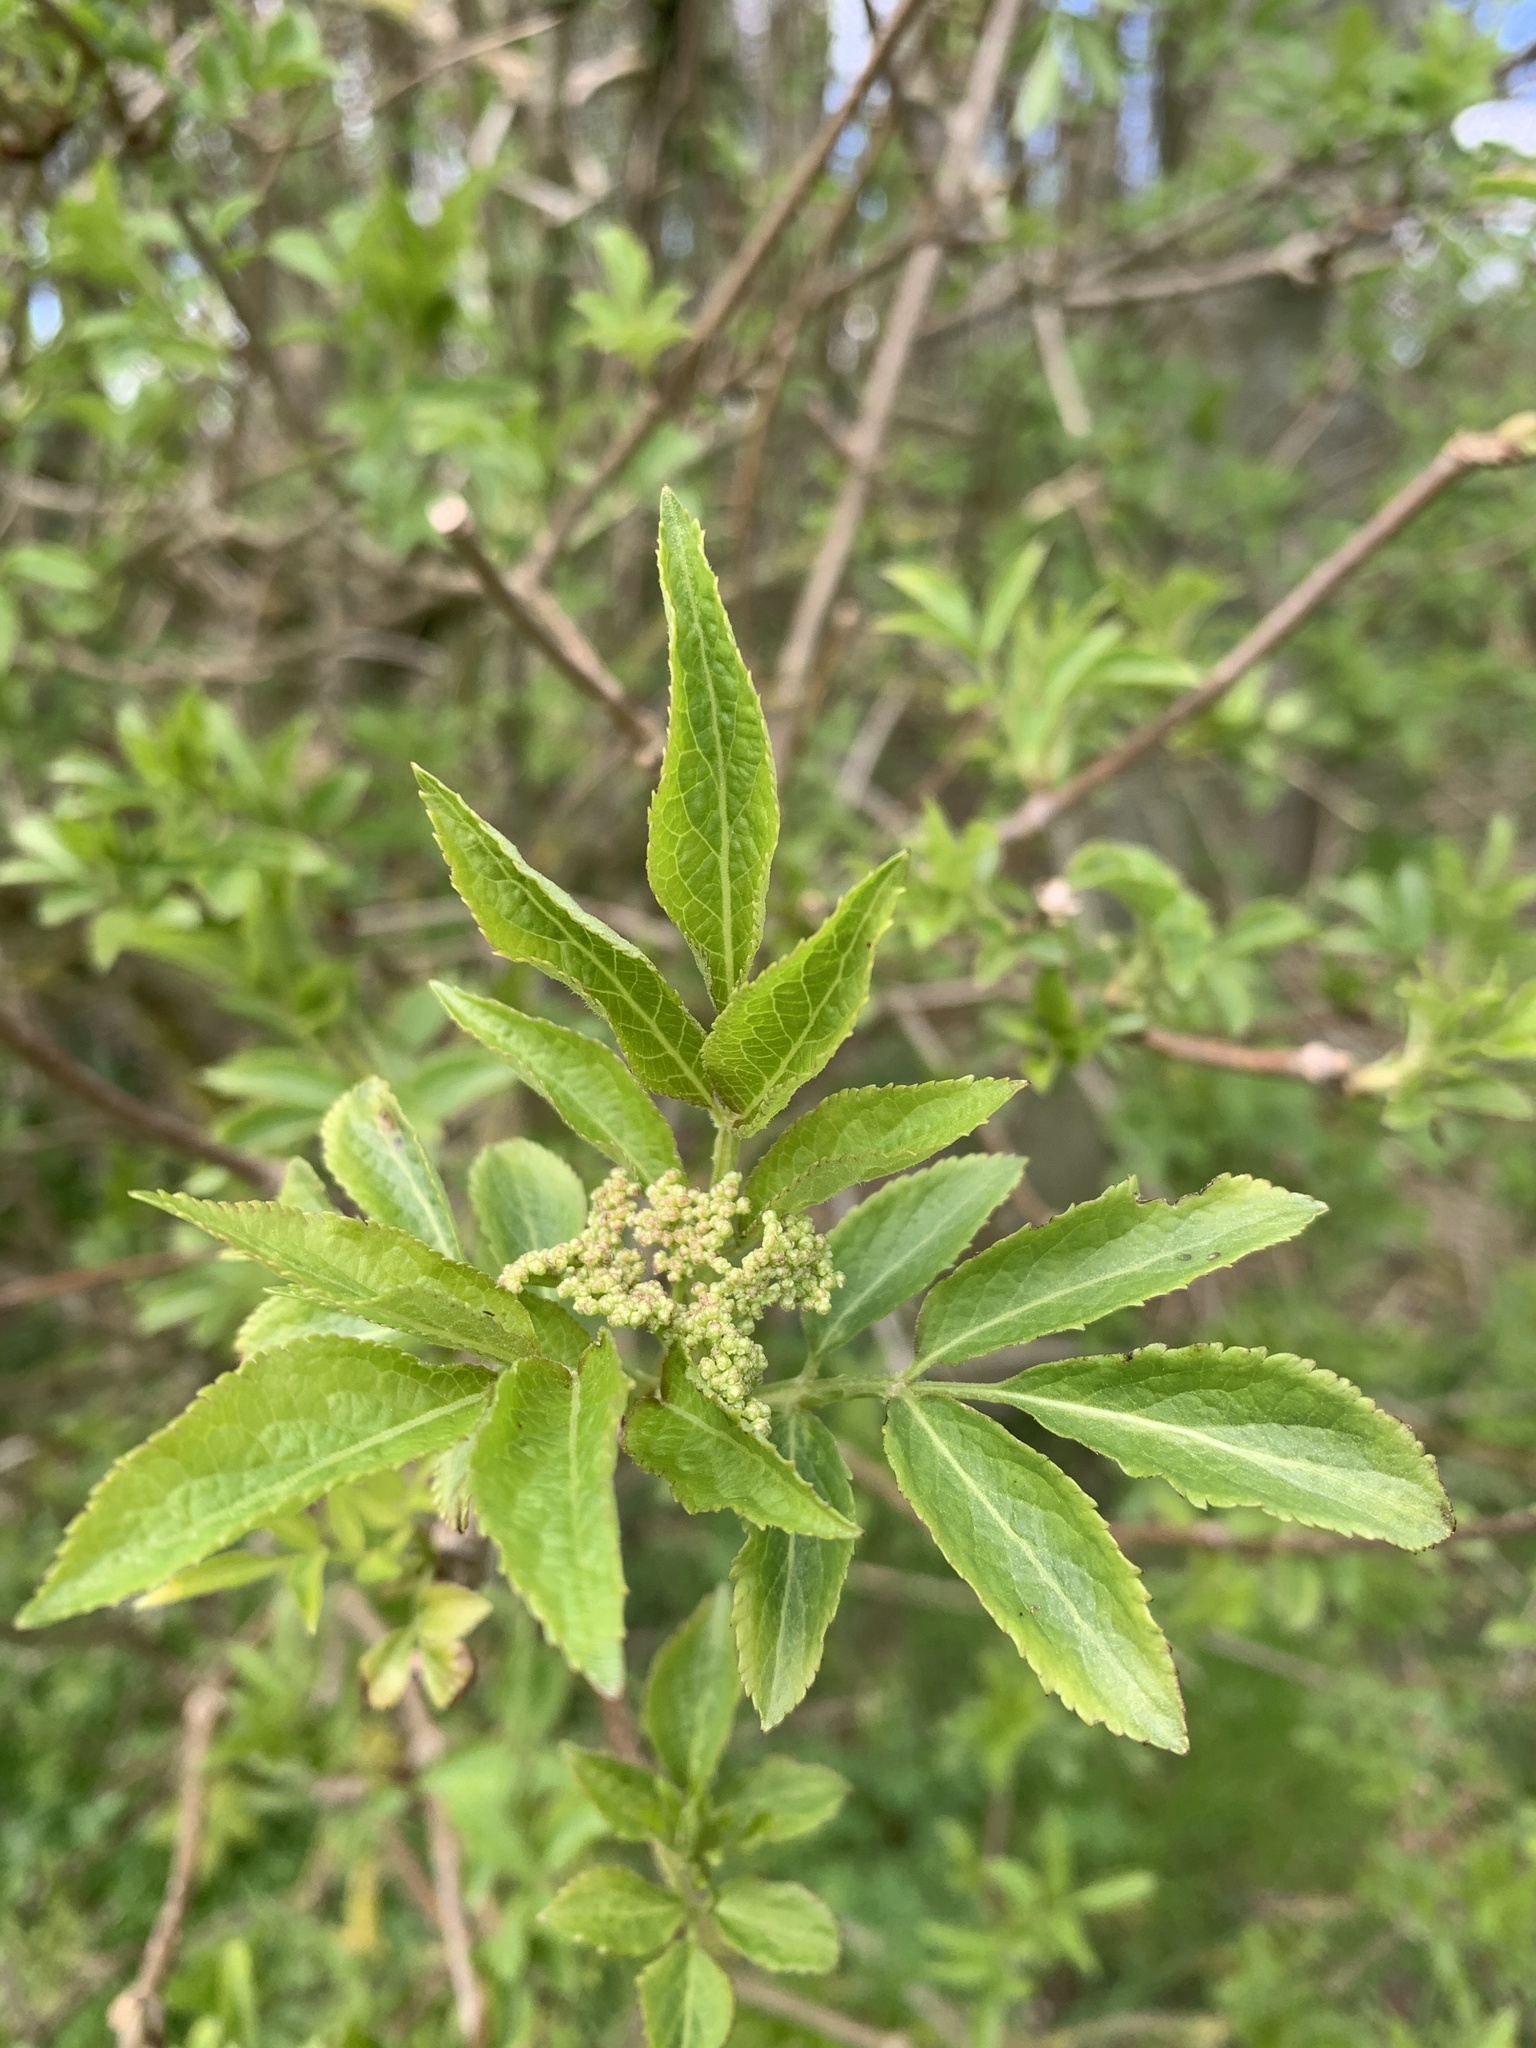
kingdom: Plantae
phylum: Tracheophyta
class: Magnoliopsida
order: Dipsacales
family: Viburnaceae
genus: Sambucus
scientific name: Sambucus nigra
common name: Elder
